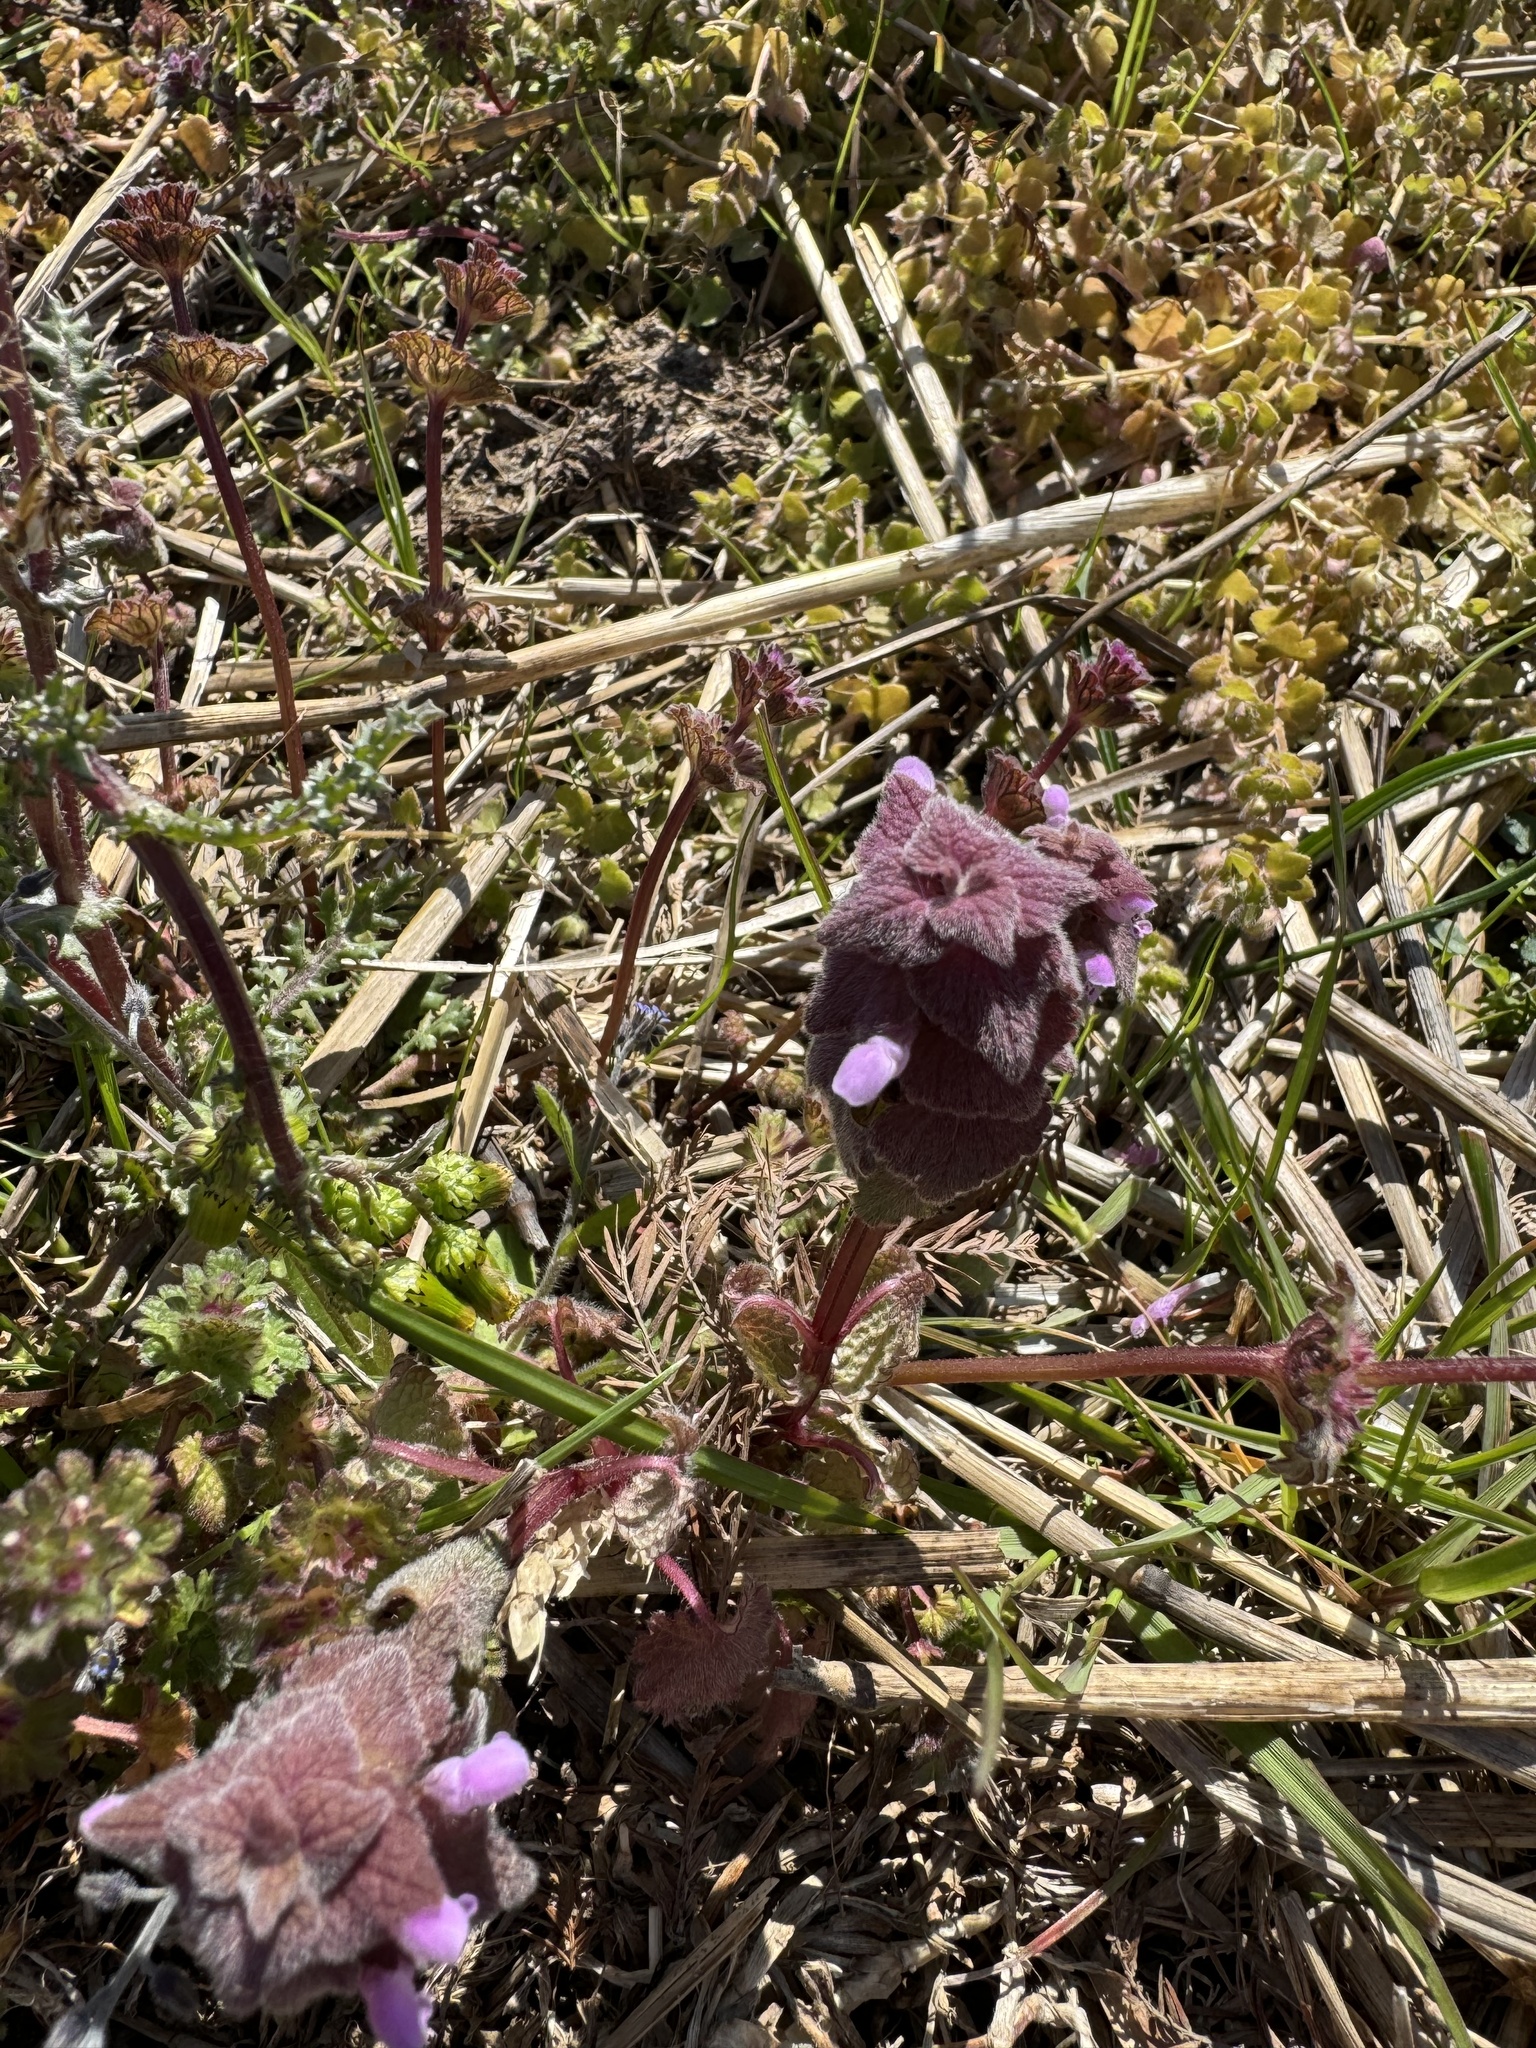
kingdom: Plantae
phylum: Tracheophyta
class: Magnoliopsida
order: Lamiales
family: Lamiaceae
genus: Lamium
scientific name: Lamium purpureum
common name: Red dead-nettle
